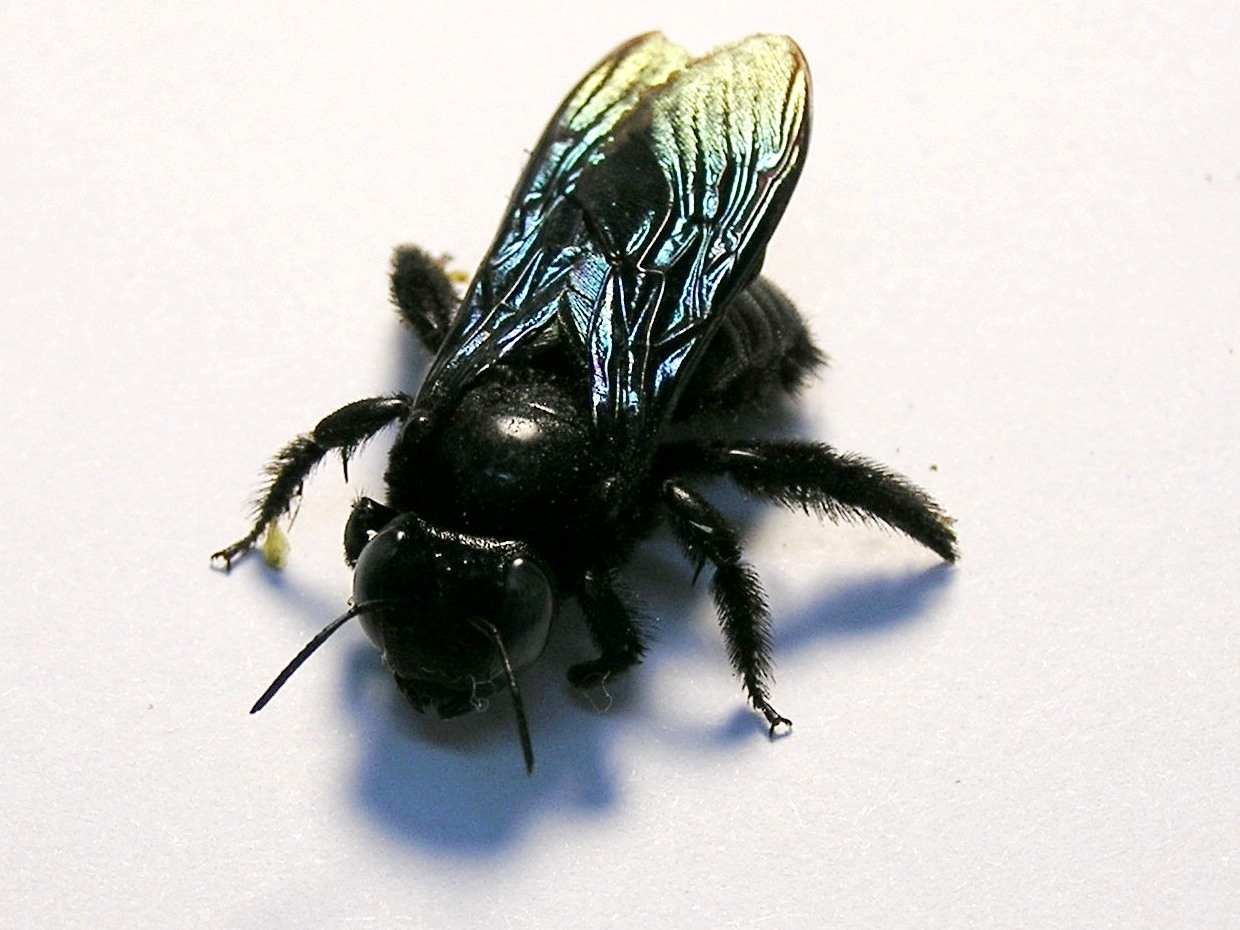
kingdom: Animalia
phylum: Arthropoda
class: Insecta
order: Hymenoptera
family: Apidae
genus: Xylocopa
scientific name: Xylocopa nasalis
